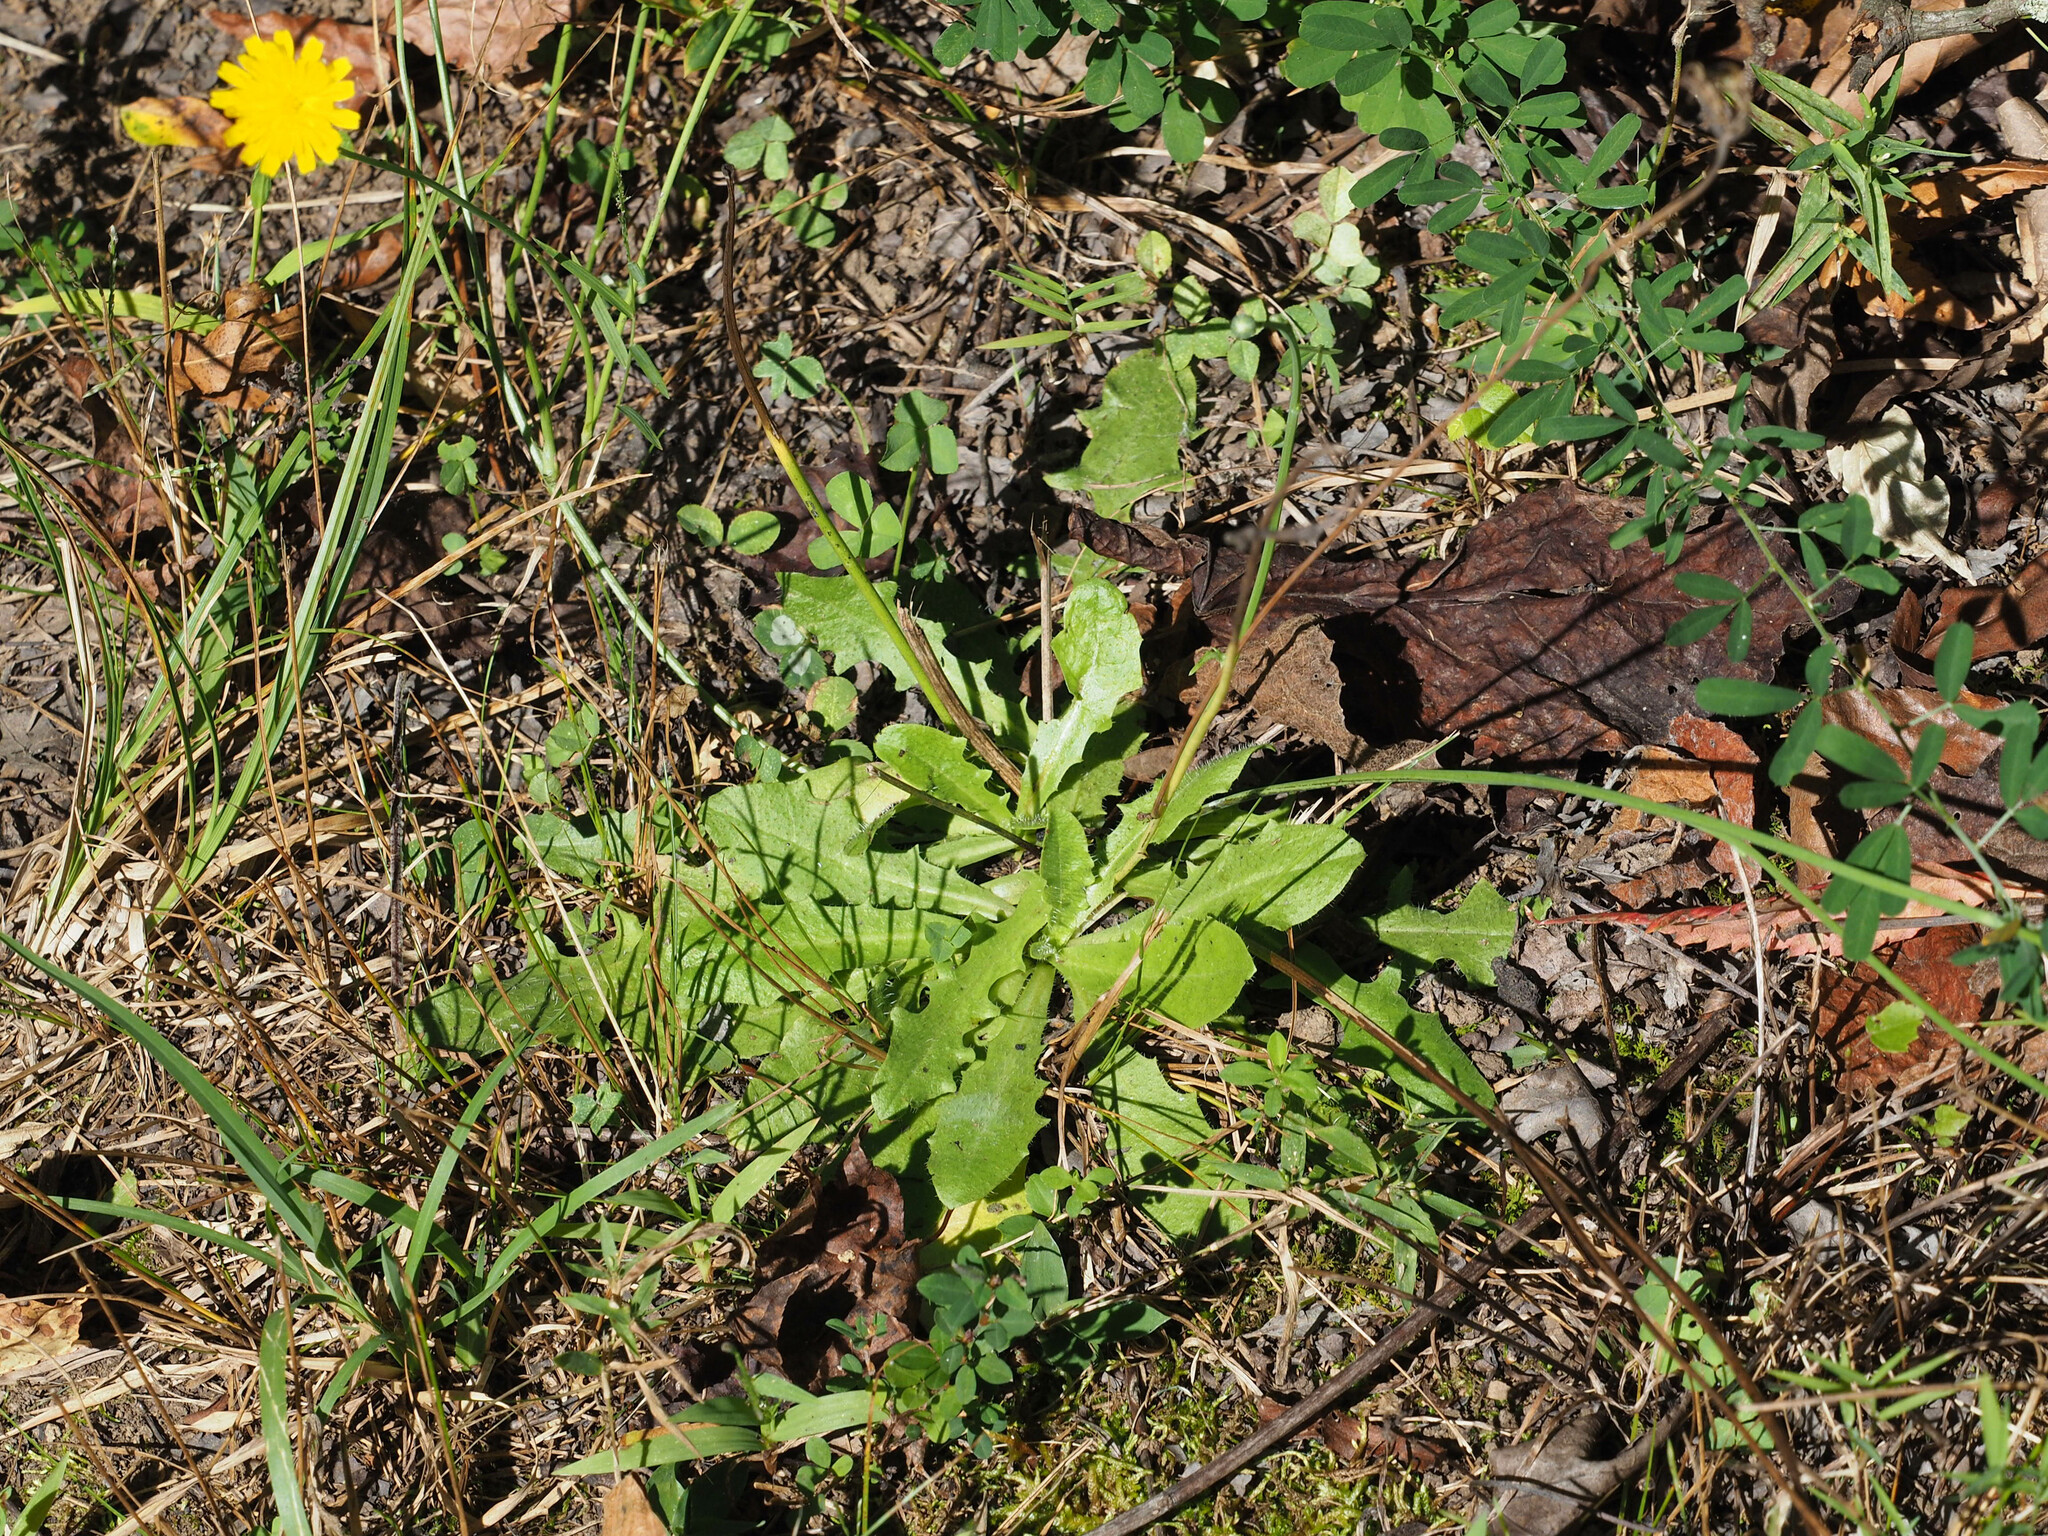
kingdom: Plantae
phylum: Tracheophyta
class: Magnoliopsida
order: Asterales
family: Asteraceae
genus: Hypochaeris
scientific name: Hypochaeris radicata
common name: Flatweed
